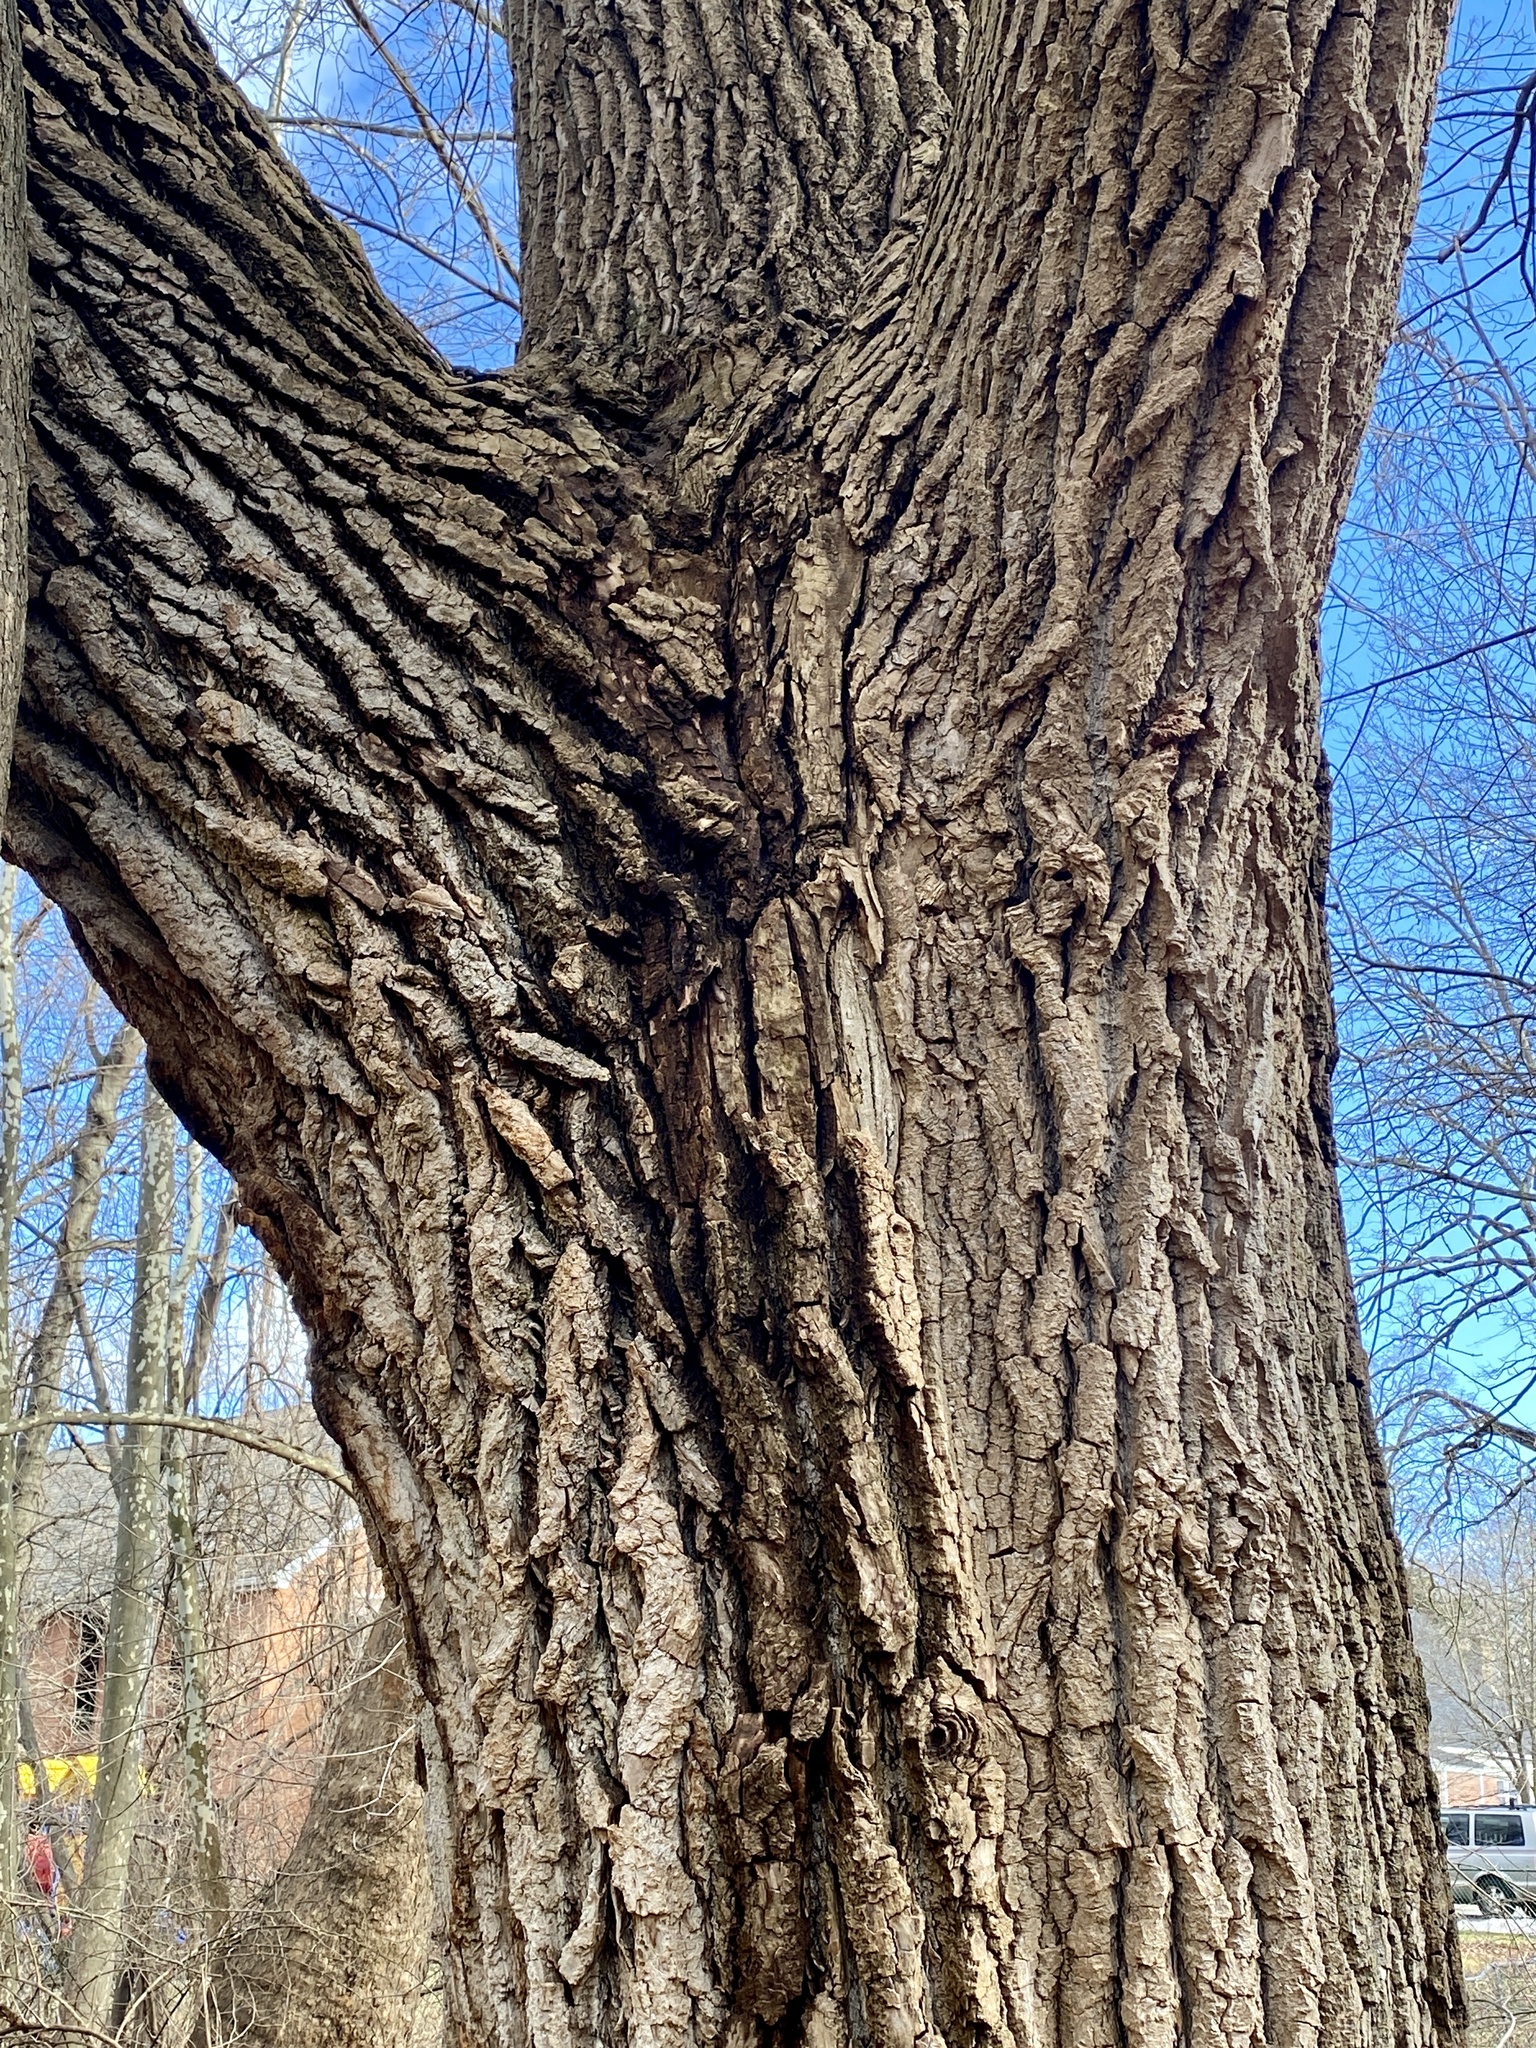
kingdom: Plantae
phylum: Tracheophyta
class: Magnoliopsida
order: Malpighiales
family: Salicaceae
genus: Populus
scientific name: Populus deltoides
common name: Eastern cottonwood
